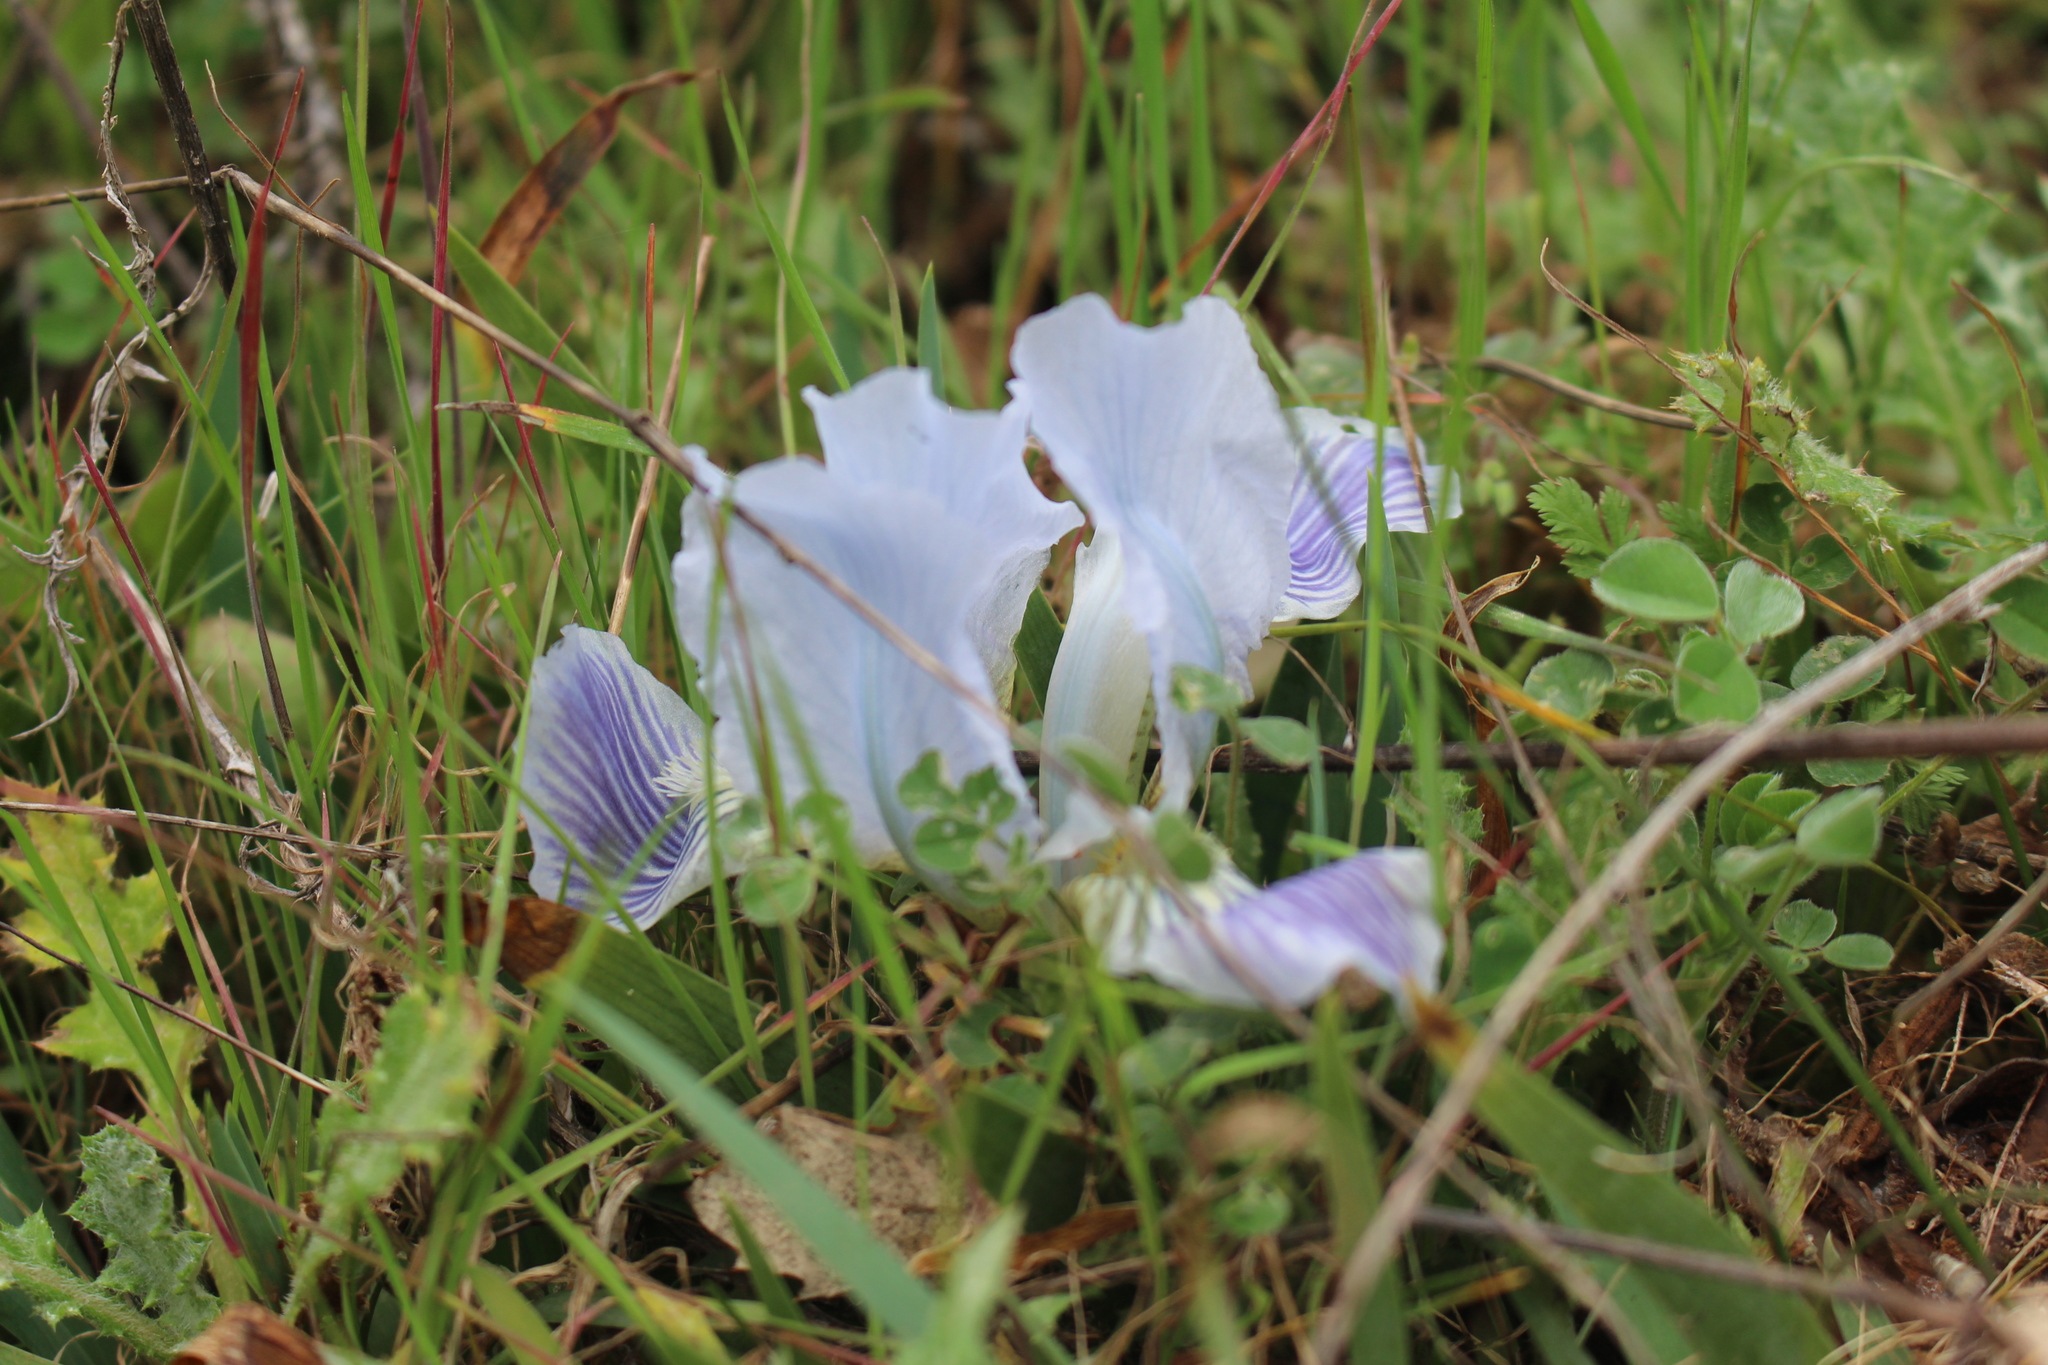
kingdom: Plantae
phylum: Tracheophyta
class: Liliopsida
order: Asparagales
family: Iridaceae
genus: Iris
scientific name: Iris lutescens
